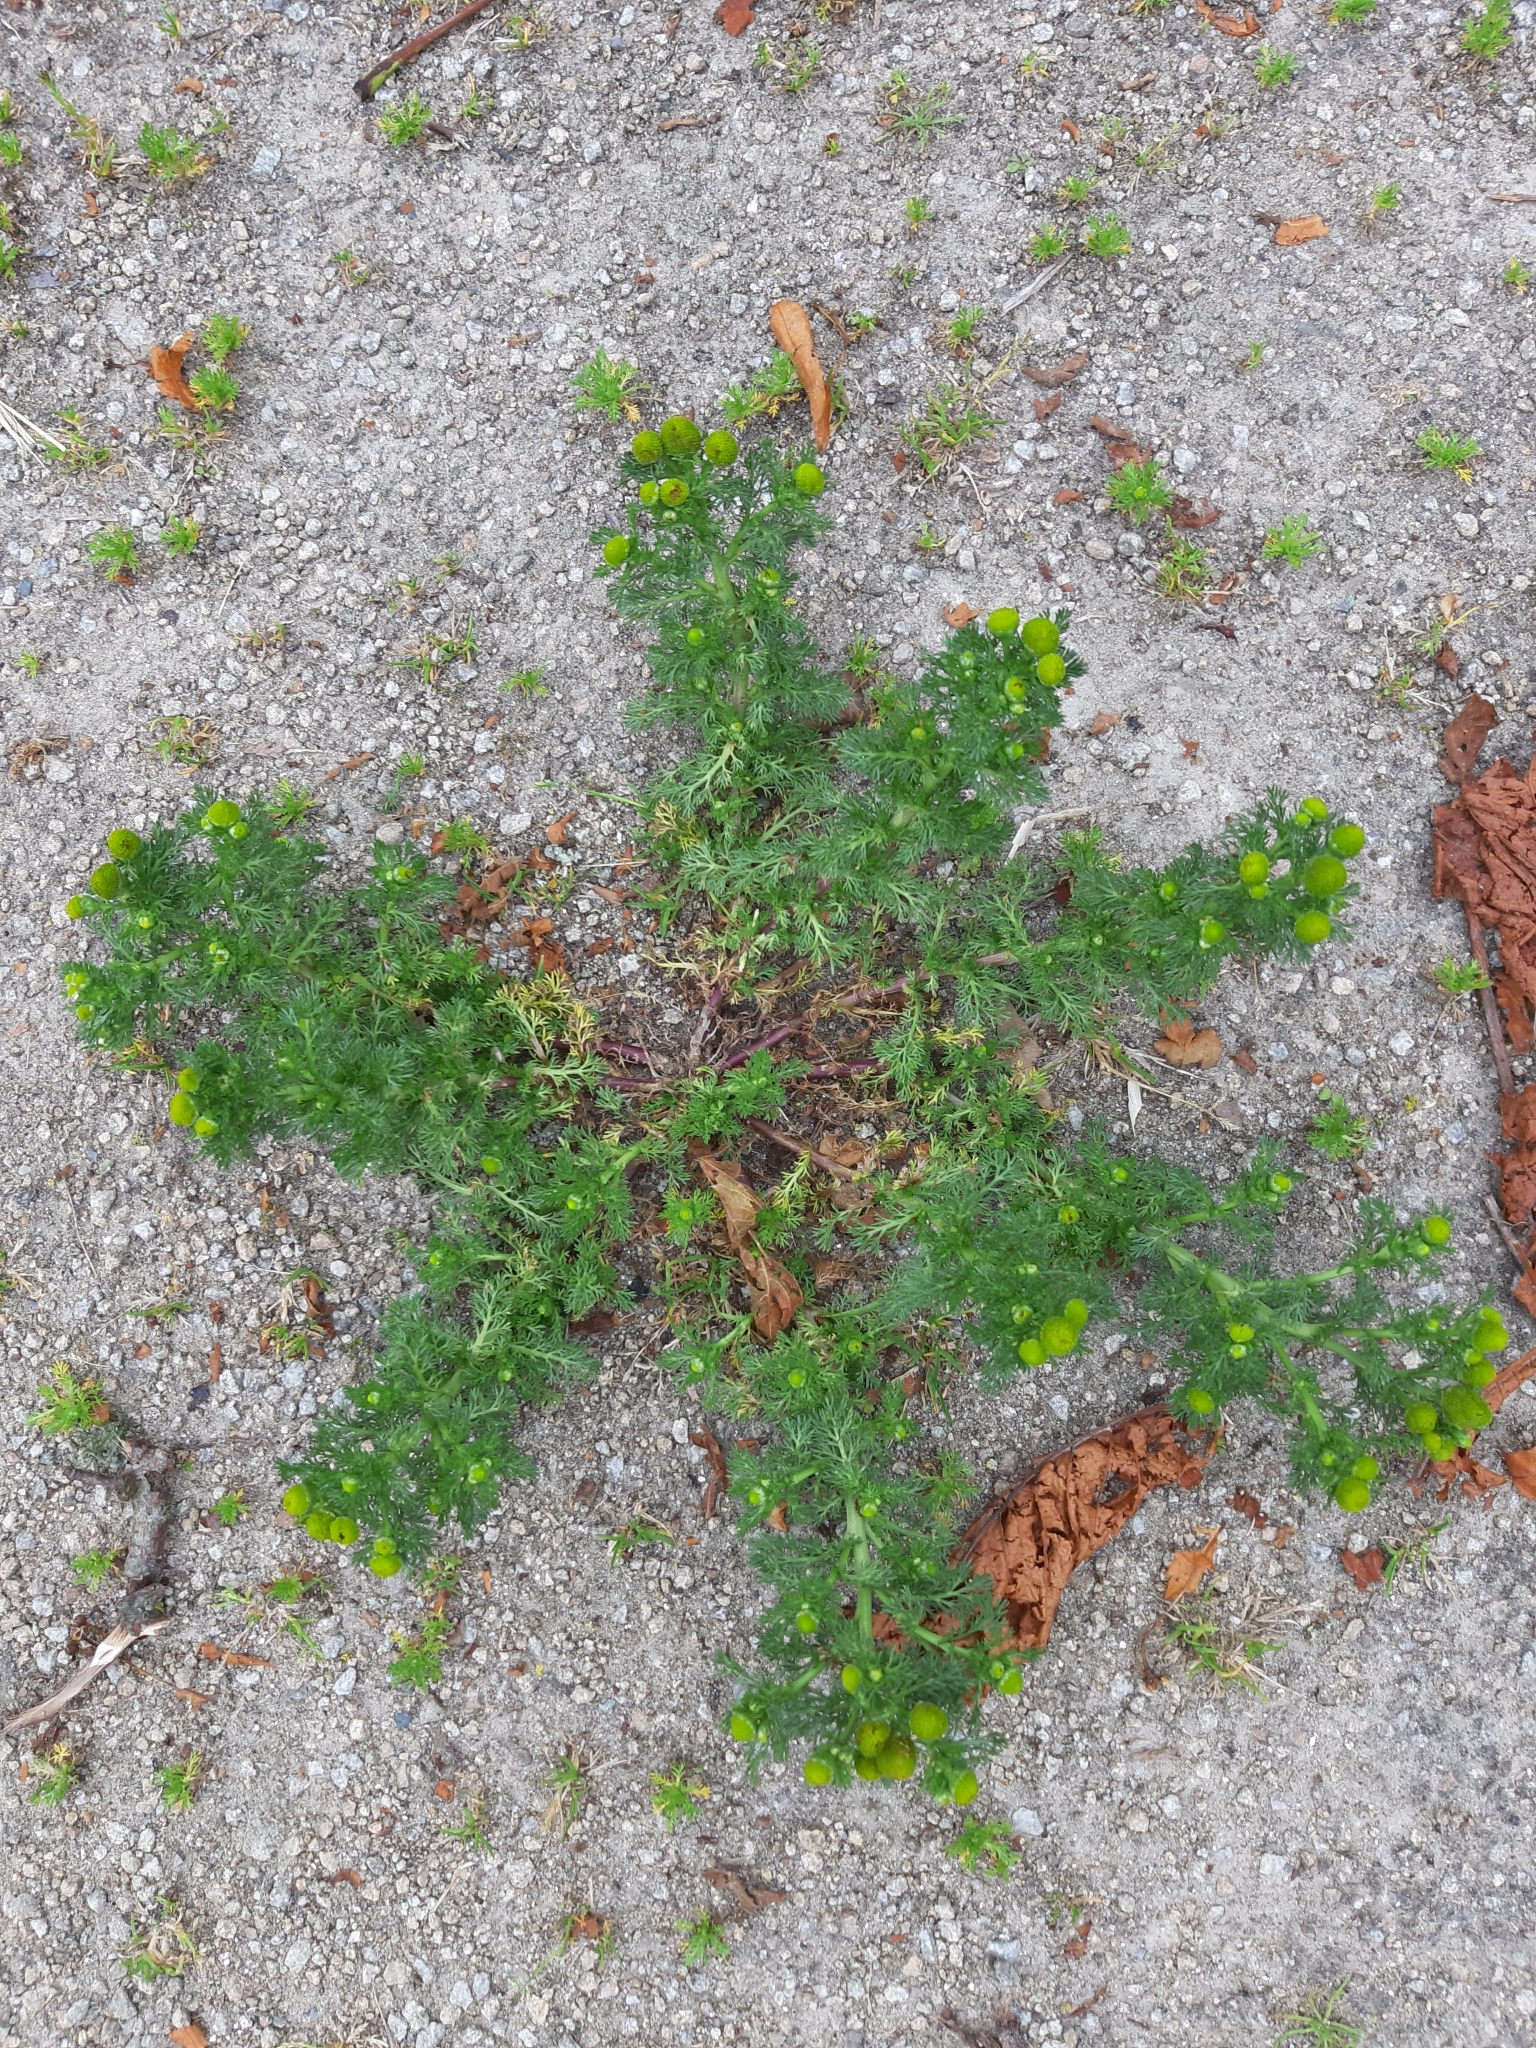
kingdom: Plantae
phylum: Tracheophyta
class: Magnoliopsida
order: Asterales
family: Asteraceae
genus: Matricaria
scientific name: Matricaria discoidea
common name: Disc mayweed
